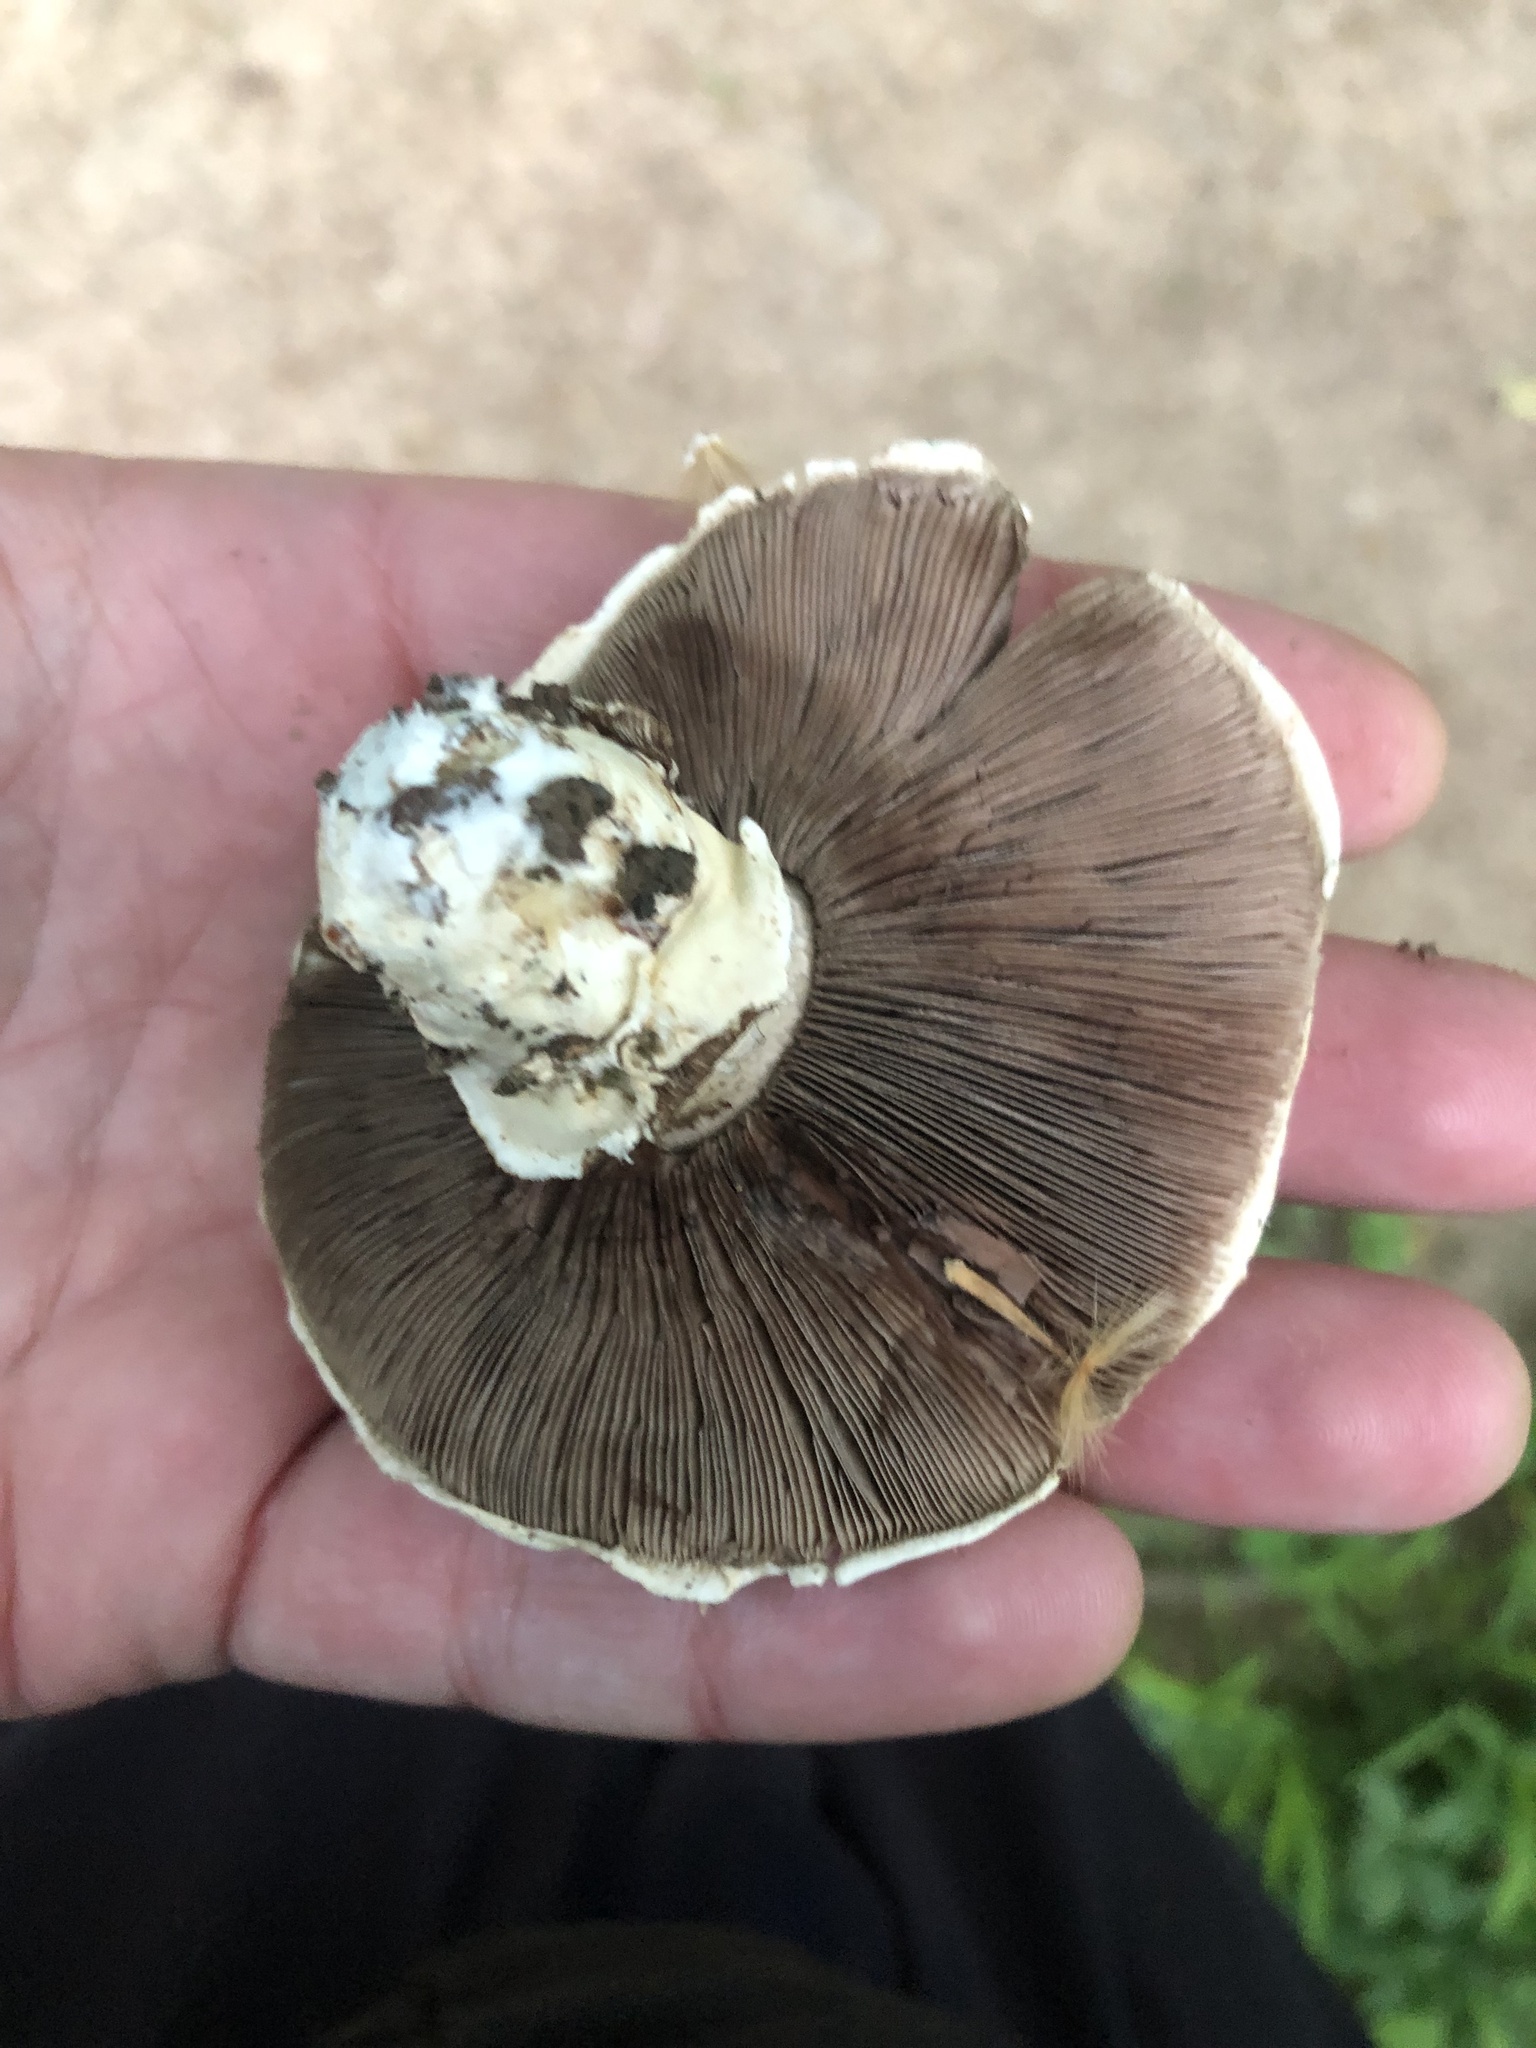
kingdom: Fungi
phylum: Basidiomycota
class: Agaricomycetes
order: Agaricales
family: Agaricaceae
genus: Agaricus
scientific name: Agaricus bitorquis
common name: Pavement mushroom
